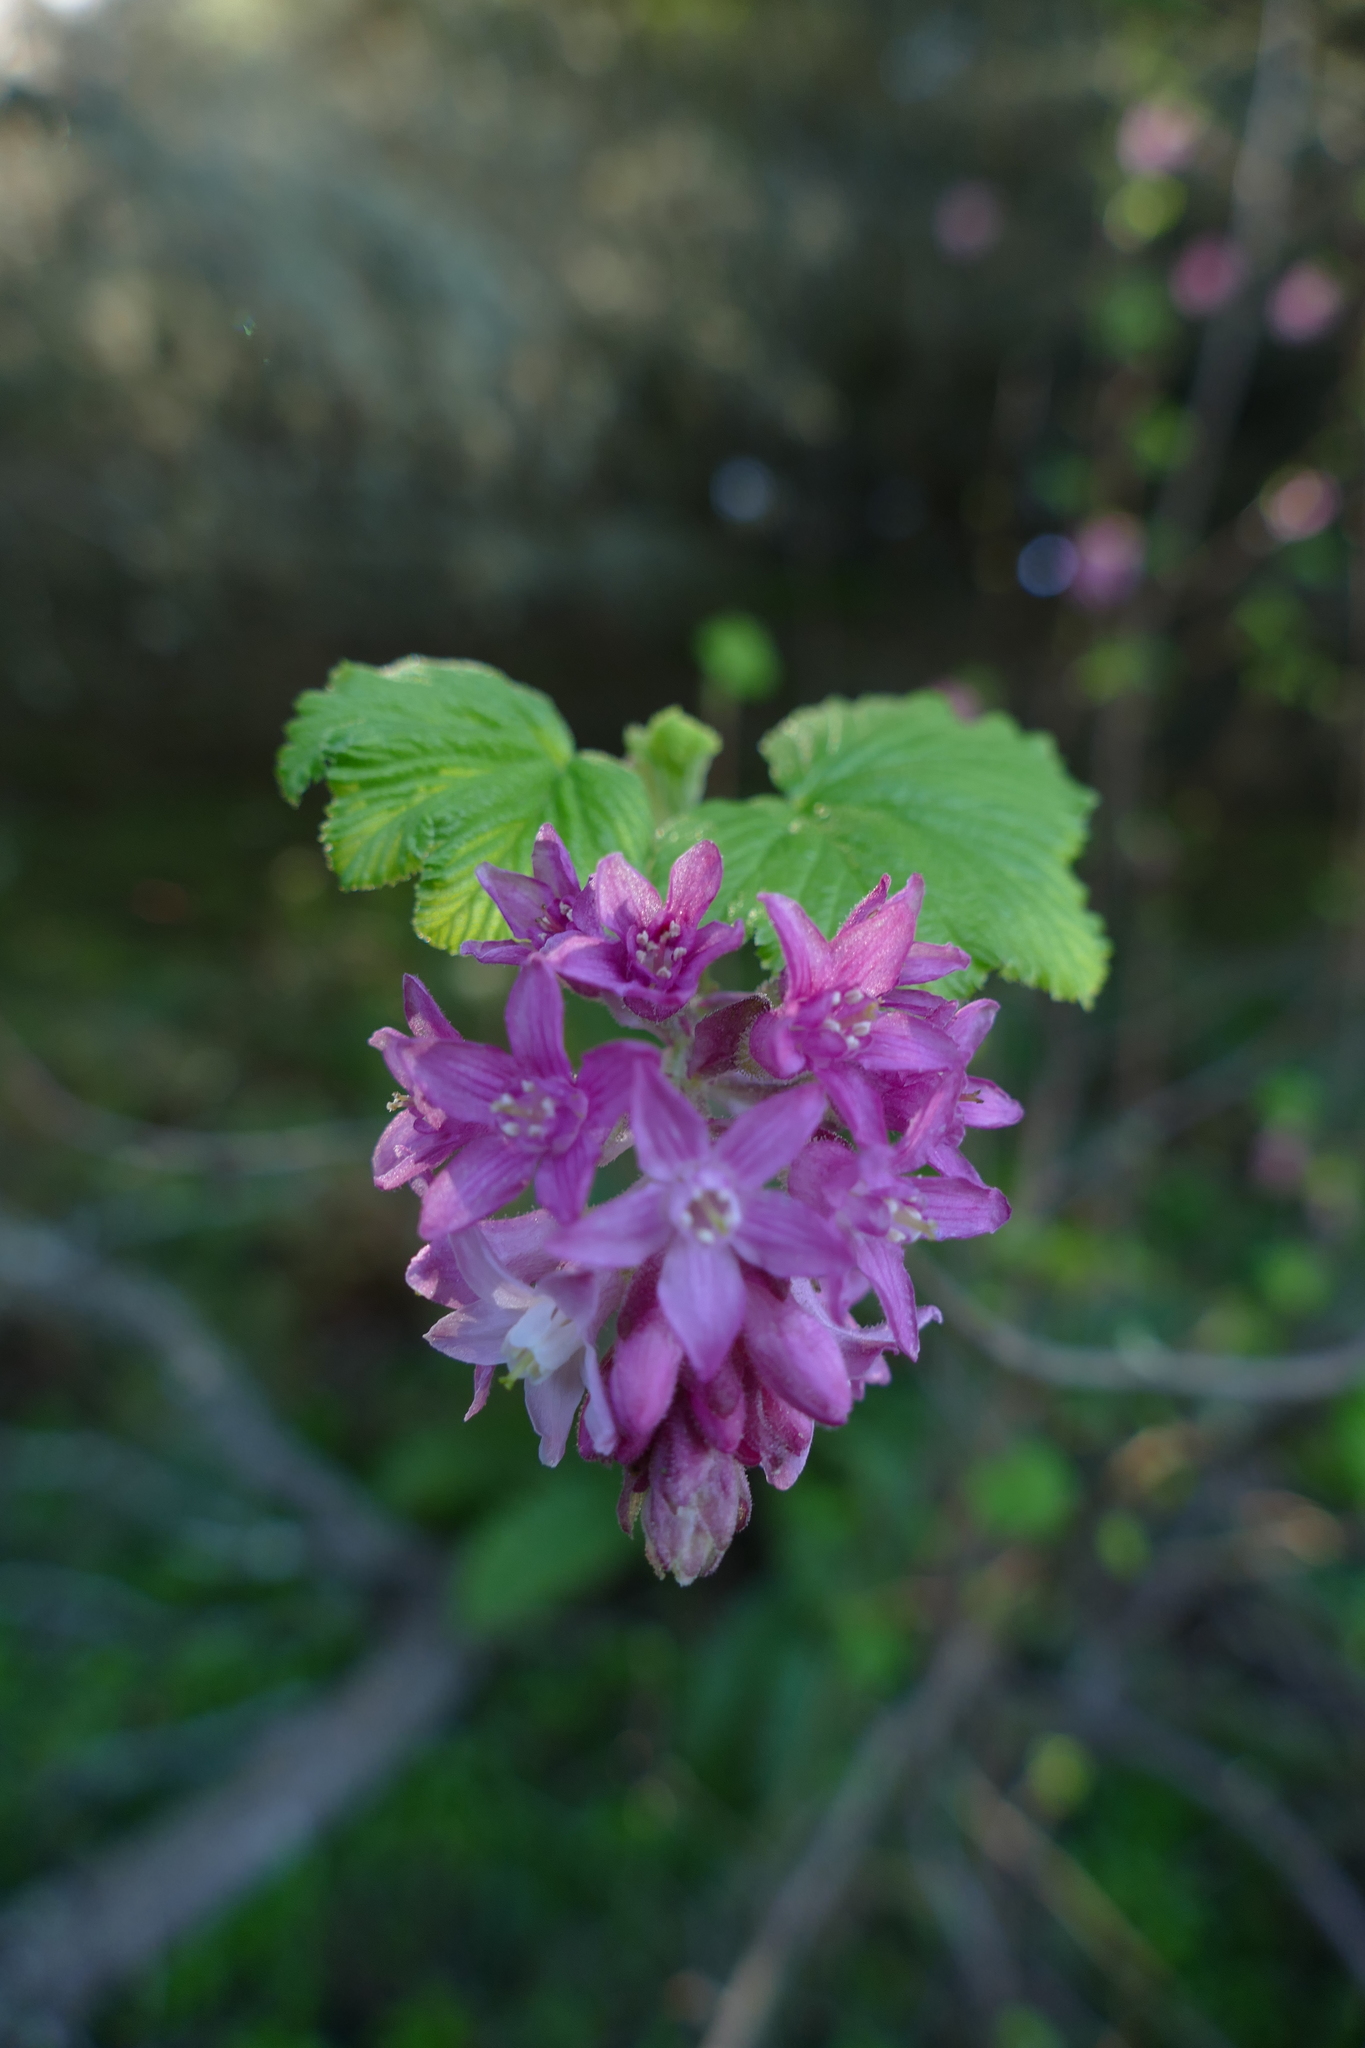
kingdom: Plantae
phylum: Tracheophyta
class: Magnoliopsida
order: Saxifragales
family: Grossulariaceae
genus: Ribes
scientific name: Ribes sanguineum
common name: Flowering currant
